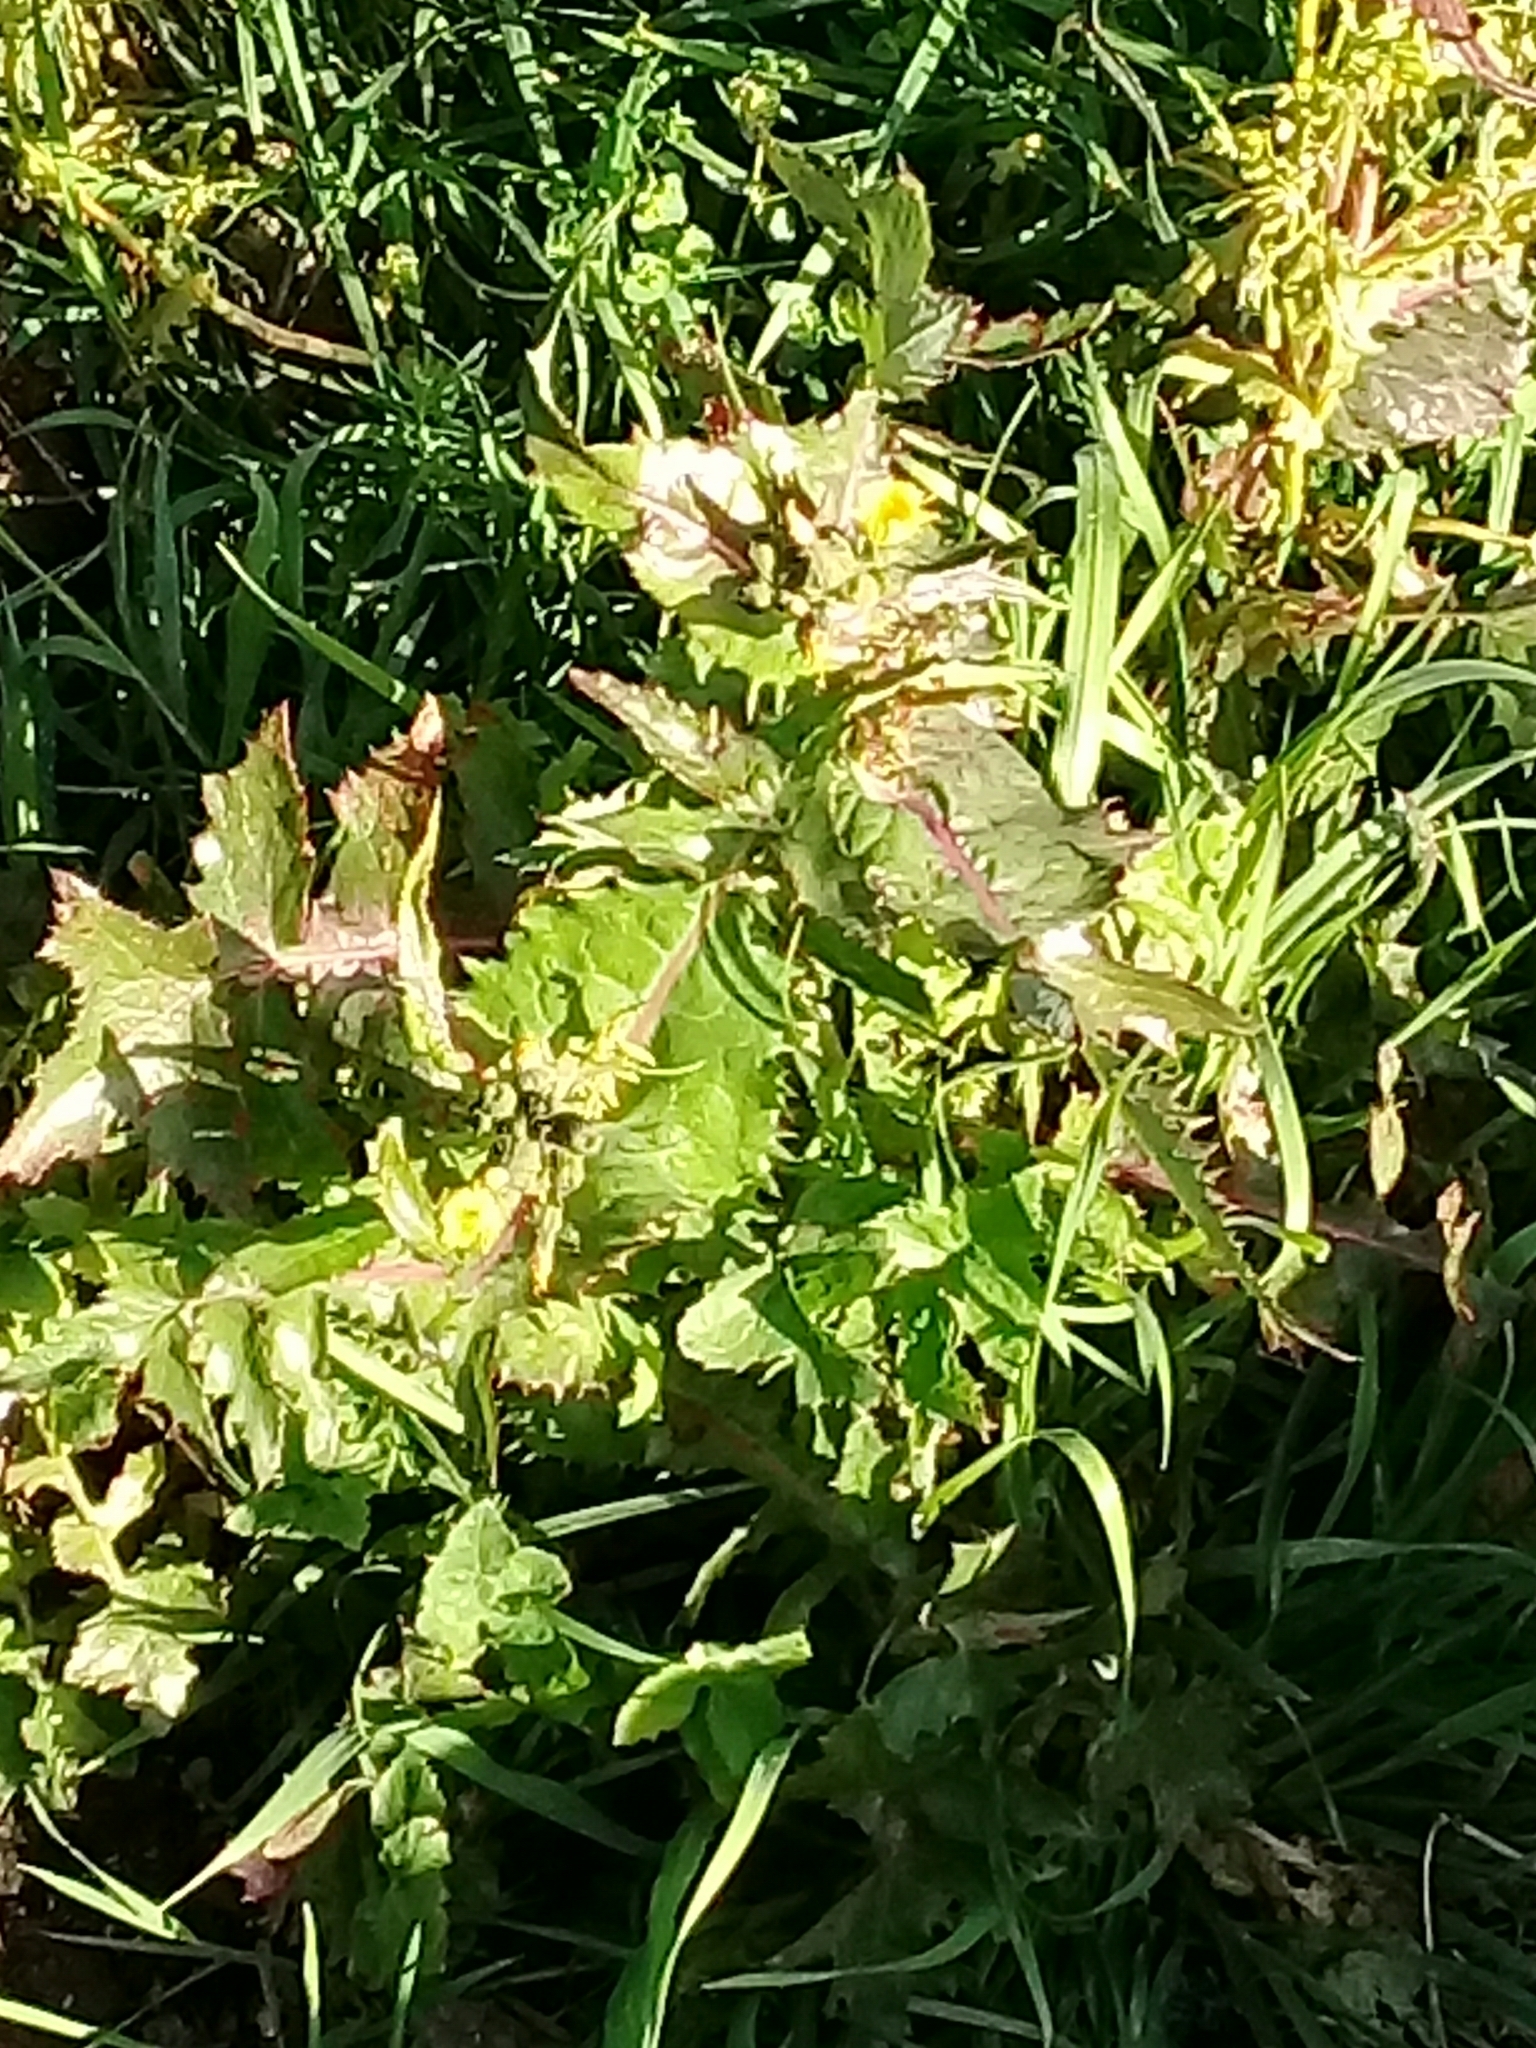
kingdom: Plantae
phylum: Tracheophyta
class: Magnoliopsida
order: Asterales
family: Asteraceae
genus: Sonchus
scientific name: Sonchus oleraceus
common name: Common sowthistle
